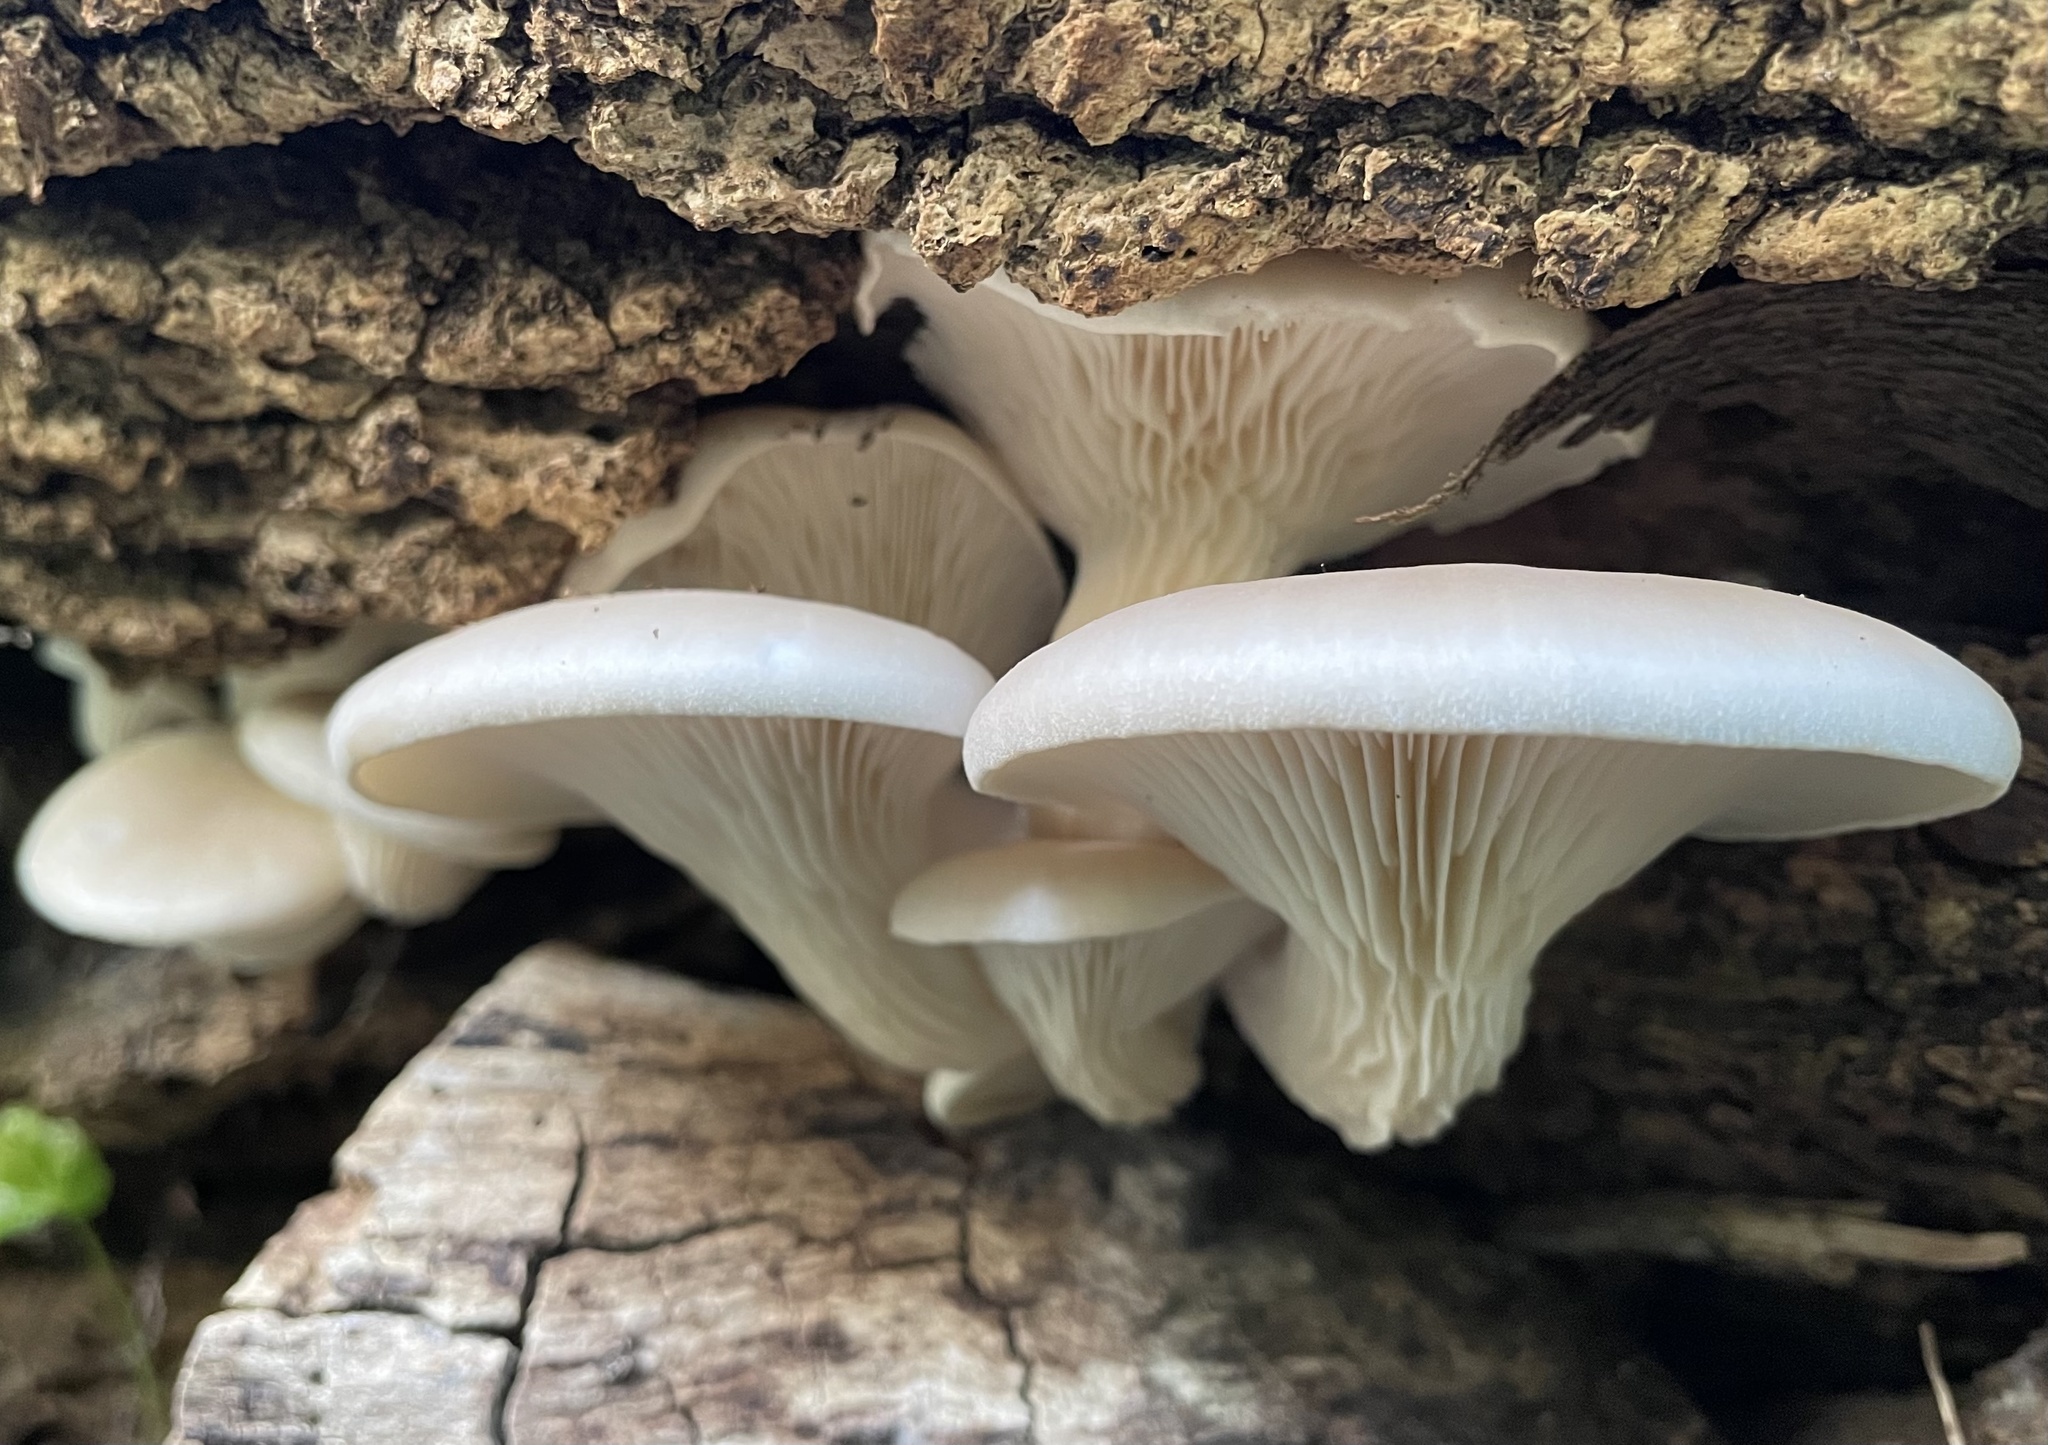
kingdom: Fungi
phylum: Basidiomycota
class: Agaricomycetes
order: Agaricales
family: Pleurotaceae
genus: Pleurotus
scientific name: Pleurotus ostreatus
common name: Oyster mushroom
